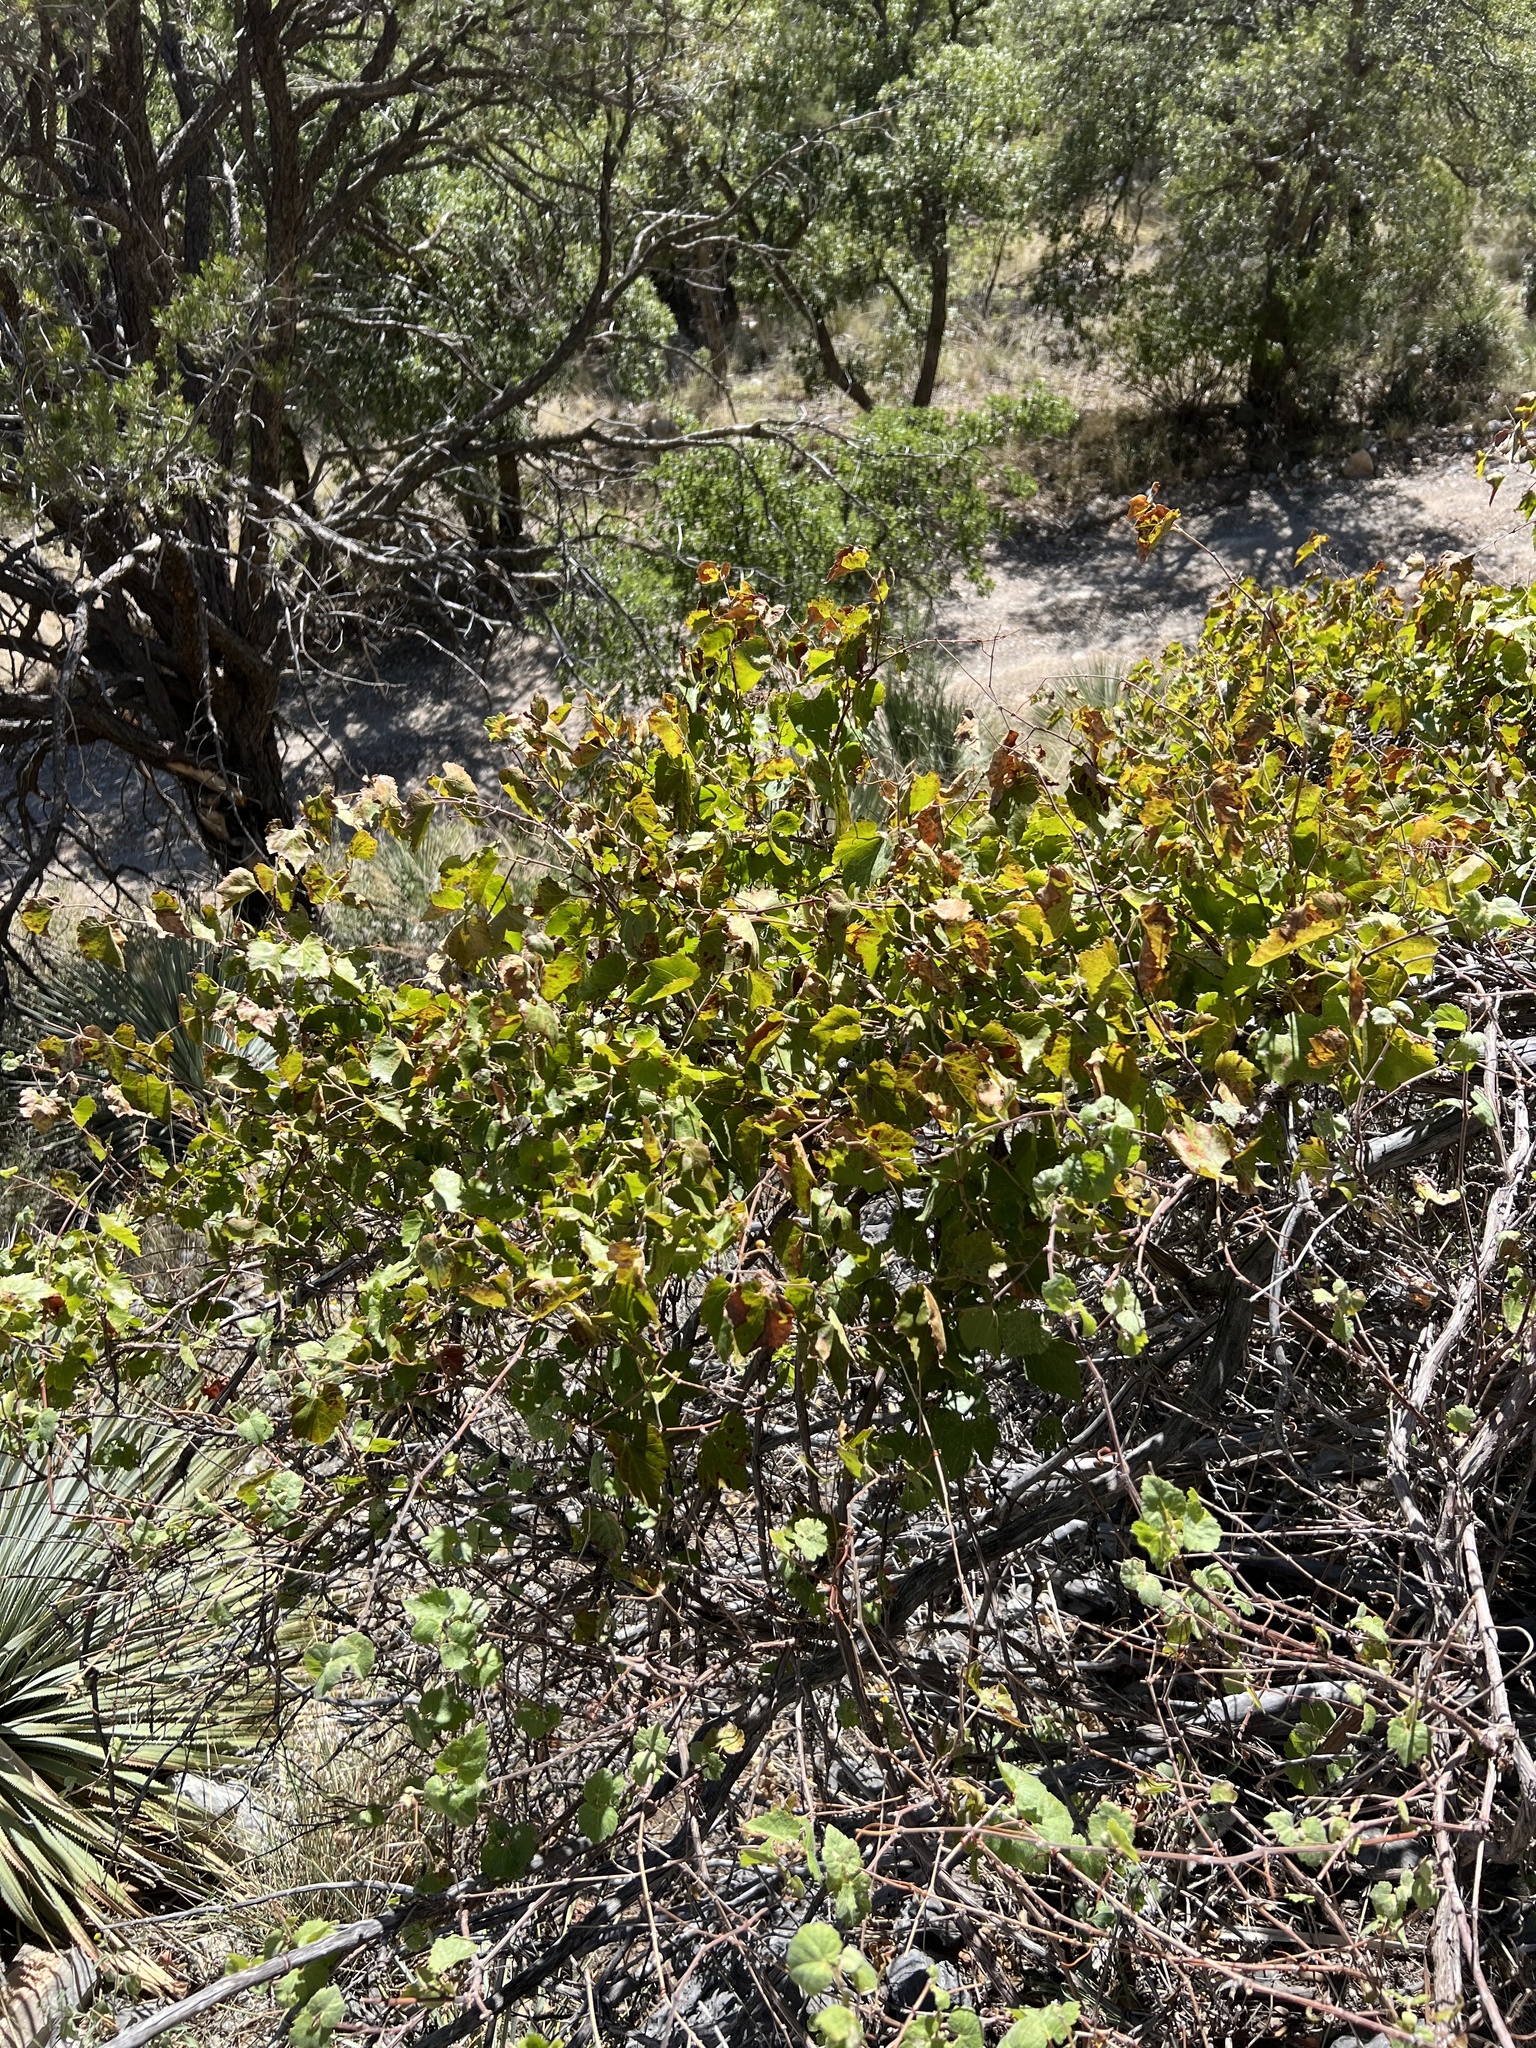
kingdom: Plantae
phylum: Tracheophyta
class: Magnoliopsida
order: Vitales
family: Vitaceae
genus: Vitis
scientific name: Vitis arizonica
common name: Canyon grape
